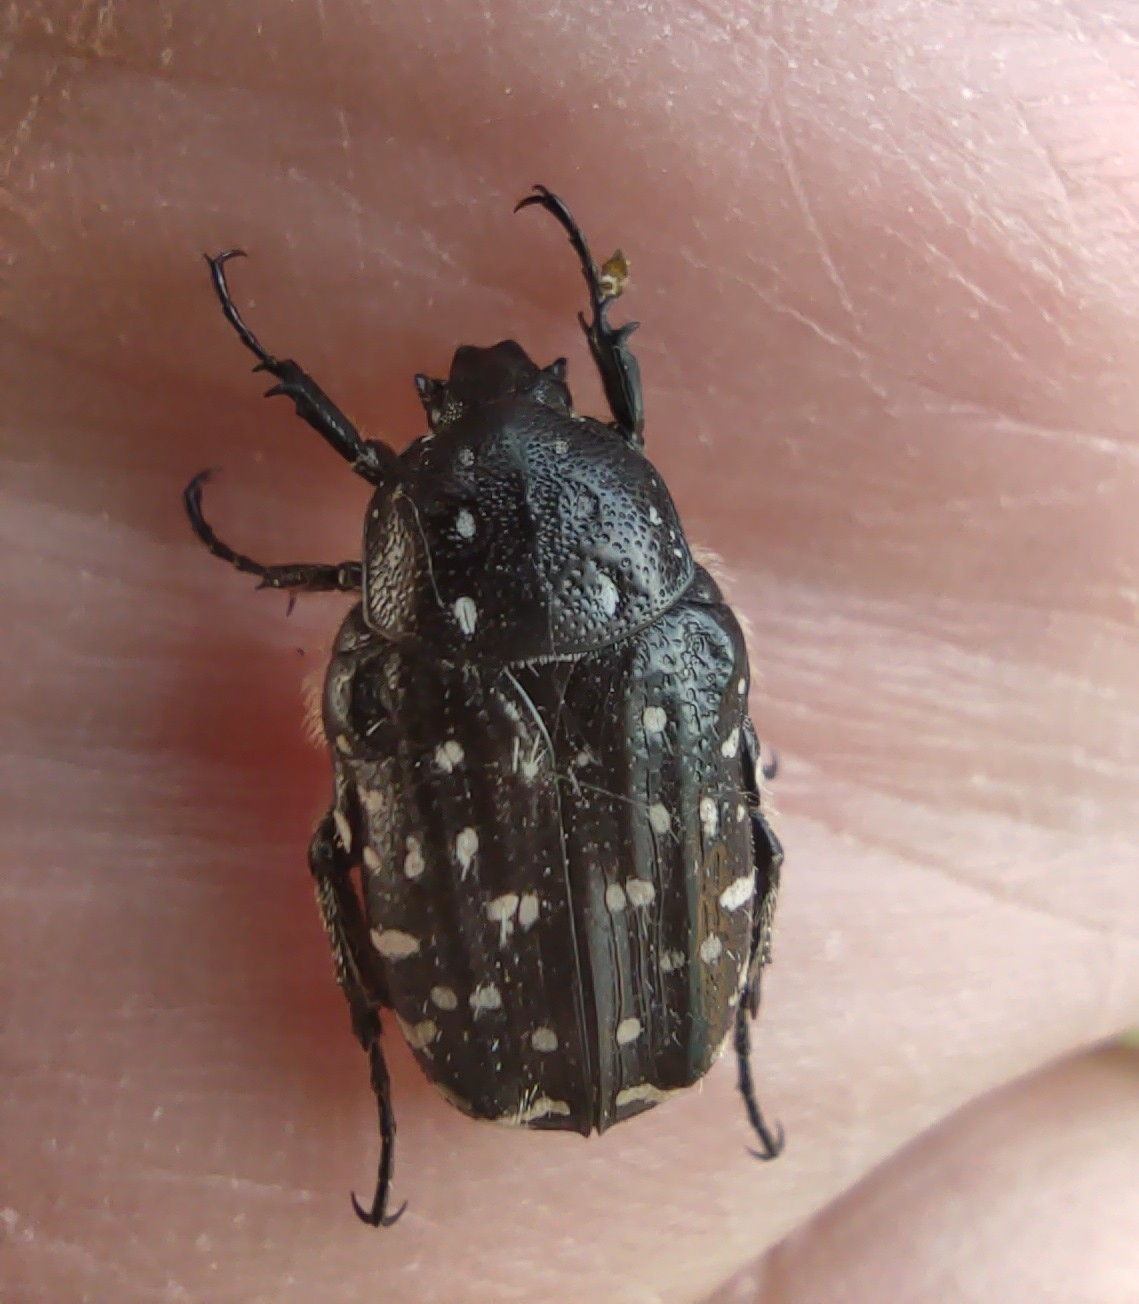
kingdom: Animalia
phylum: Arthropoda
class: Insecta
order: Coleoptera
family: Scarabaeidae
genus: Oxythyrea
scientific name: Oxythyrea funesta
